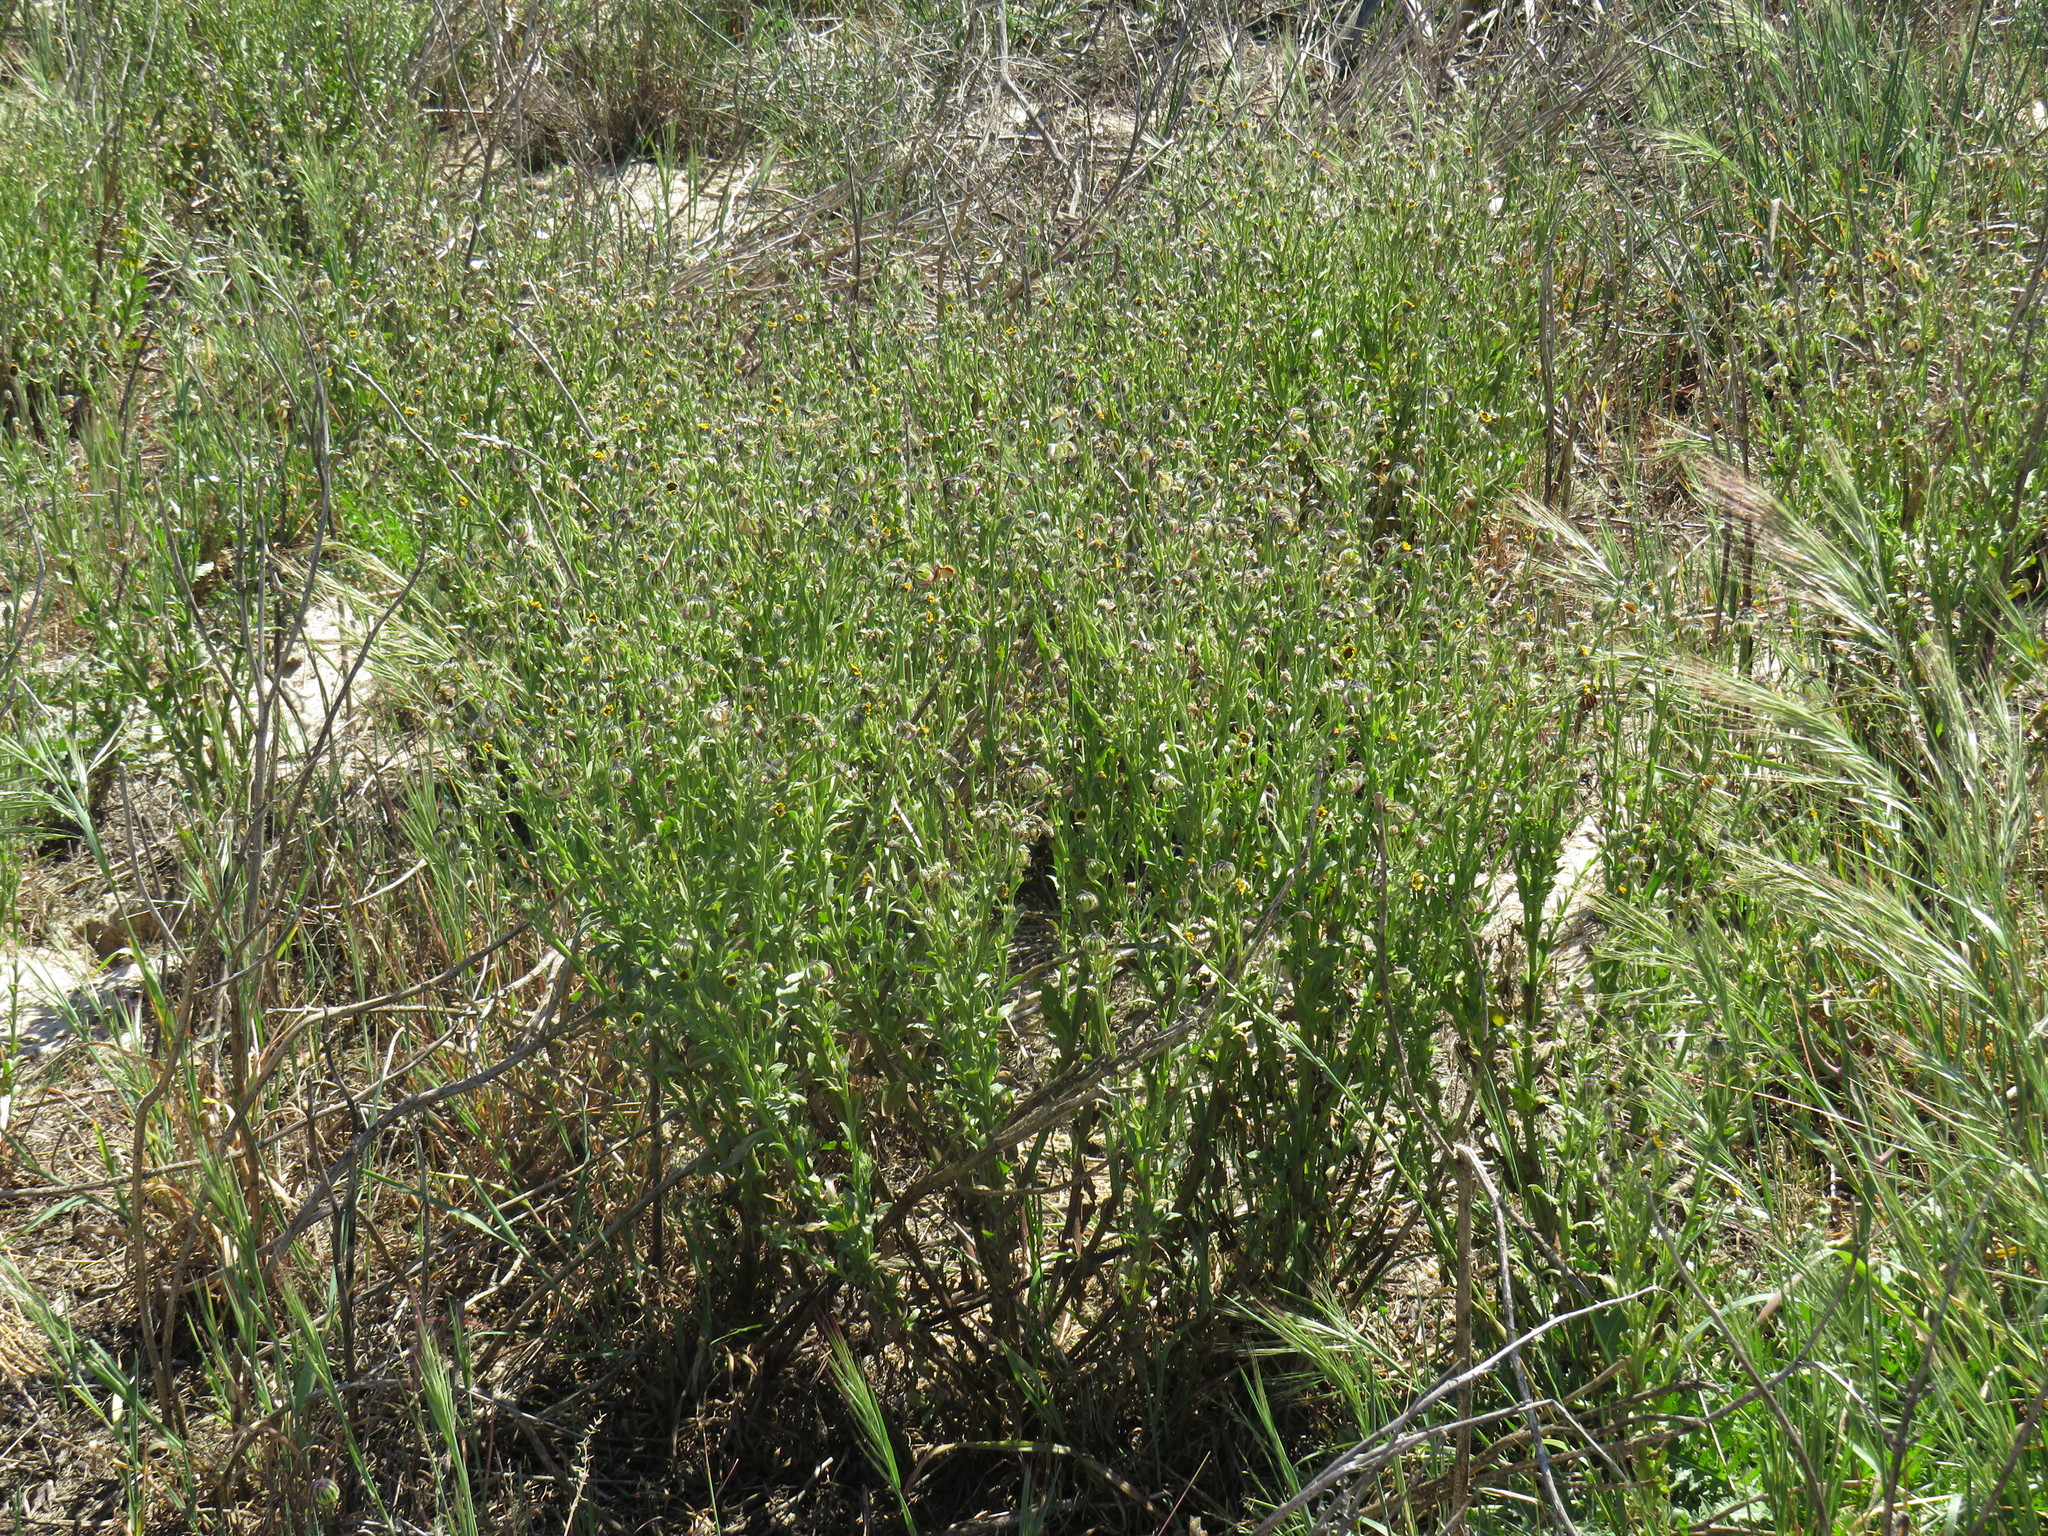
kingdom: Plantae
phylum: Tracheophyta
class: Magnoliopsida
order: Asterales
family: Asteraceae
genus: Osteospermum
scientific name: Osteospermum monstrosum
